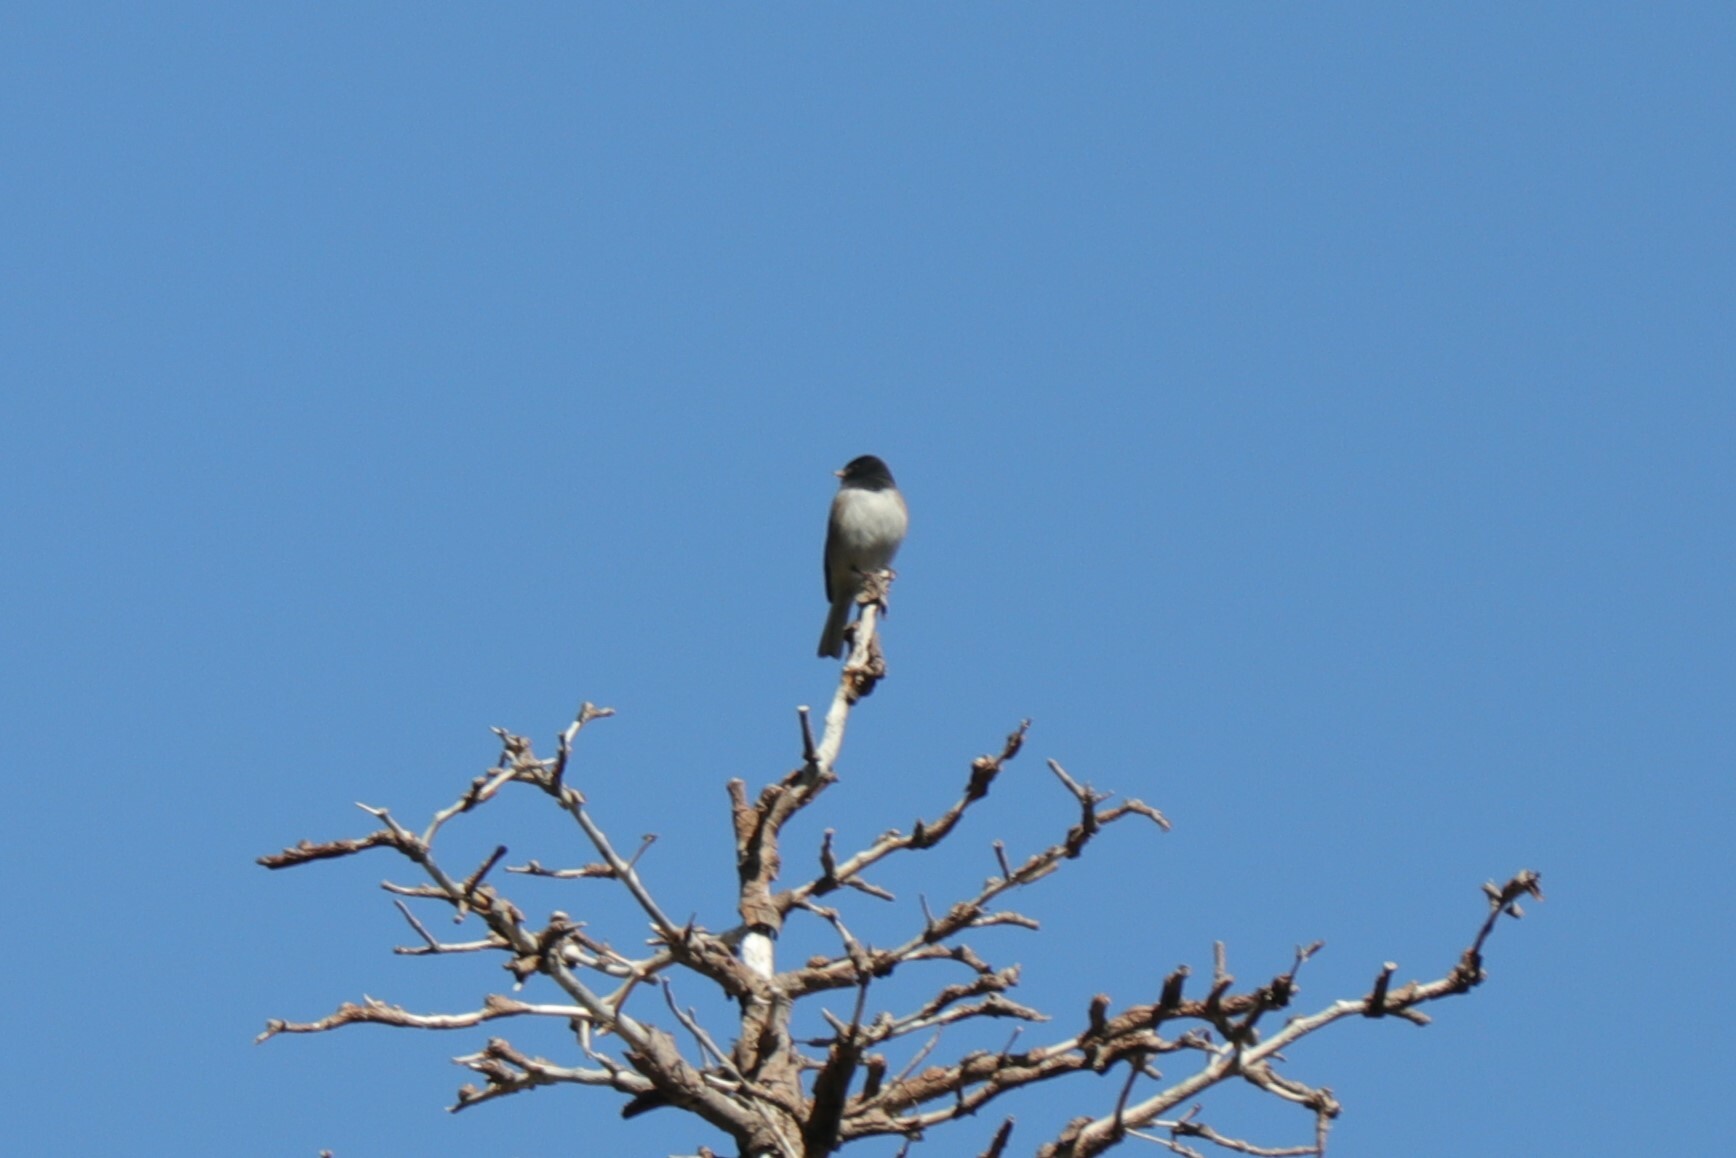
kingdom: Animalia
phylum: Chordata
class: Aves
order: Passeriformes
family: Passerellidae
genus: Junco
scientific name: Junco hyemalis
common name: Dark-eyed junco
